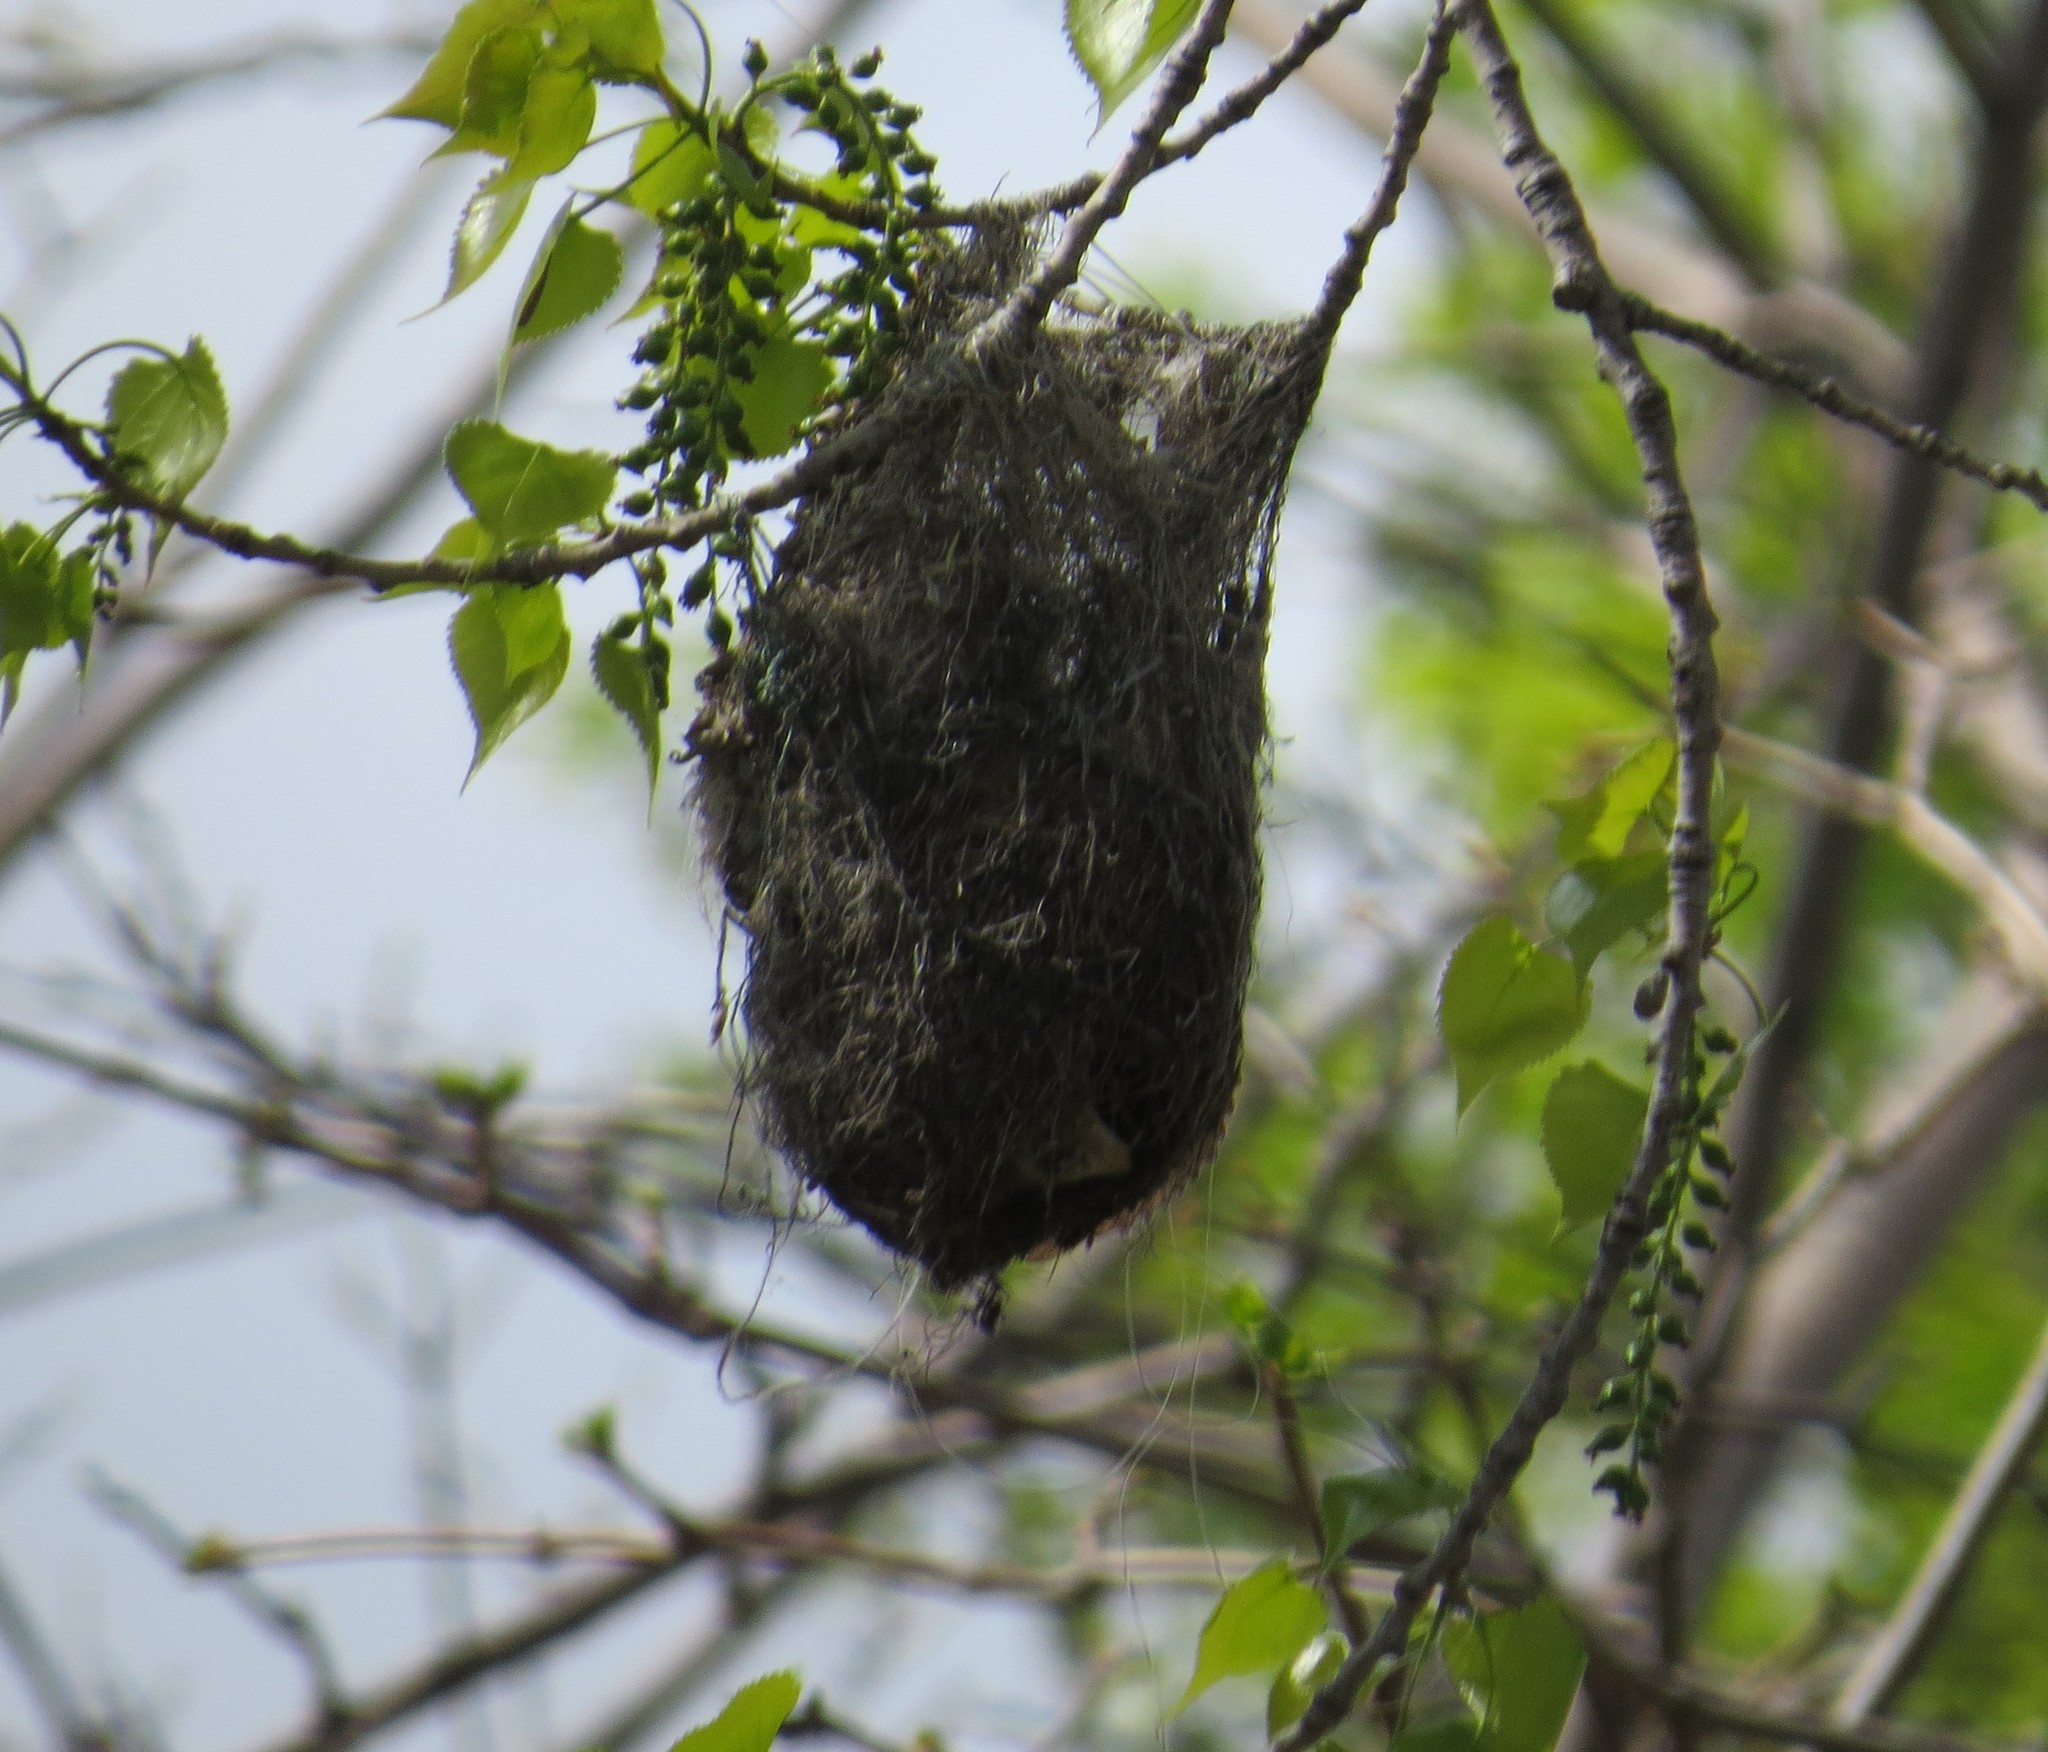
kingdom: Animalia
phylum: Chordata
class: Aves
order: Passeriformes
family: Icteridae
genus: Icterus
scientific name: Icterus galbula
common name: Baltimore oriole
